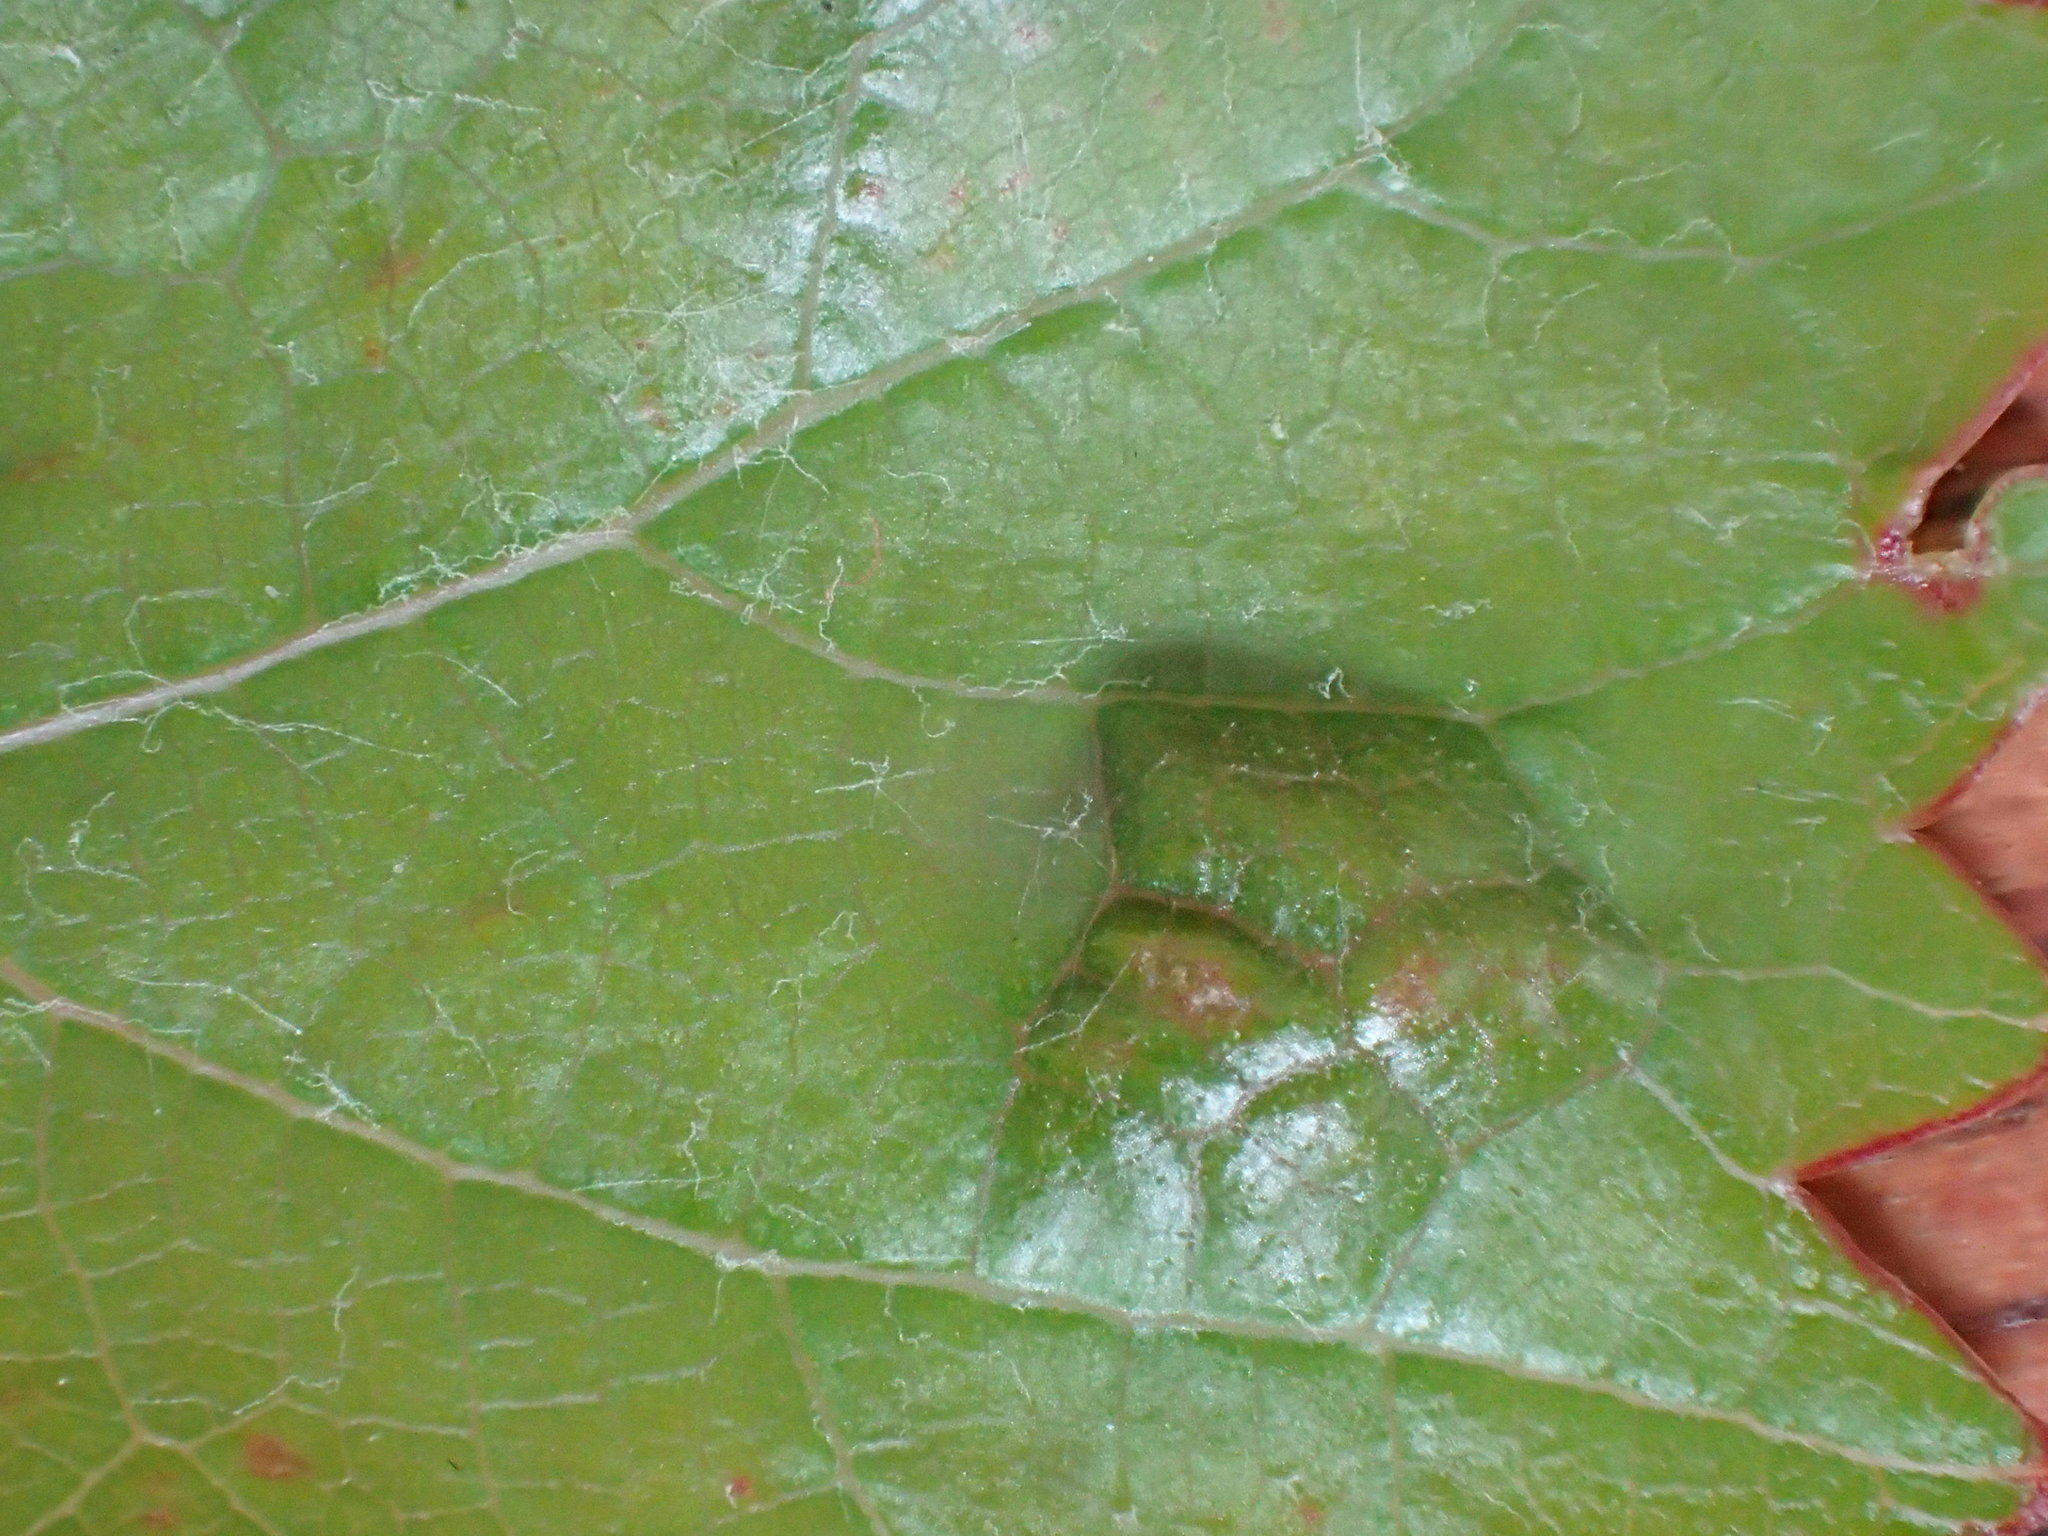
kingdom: Animalia
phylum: Arthropoda
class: Arachnida
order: Trombidiformes
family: Eriophyidae
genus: Colomerus
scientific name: Colomerus vitis
